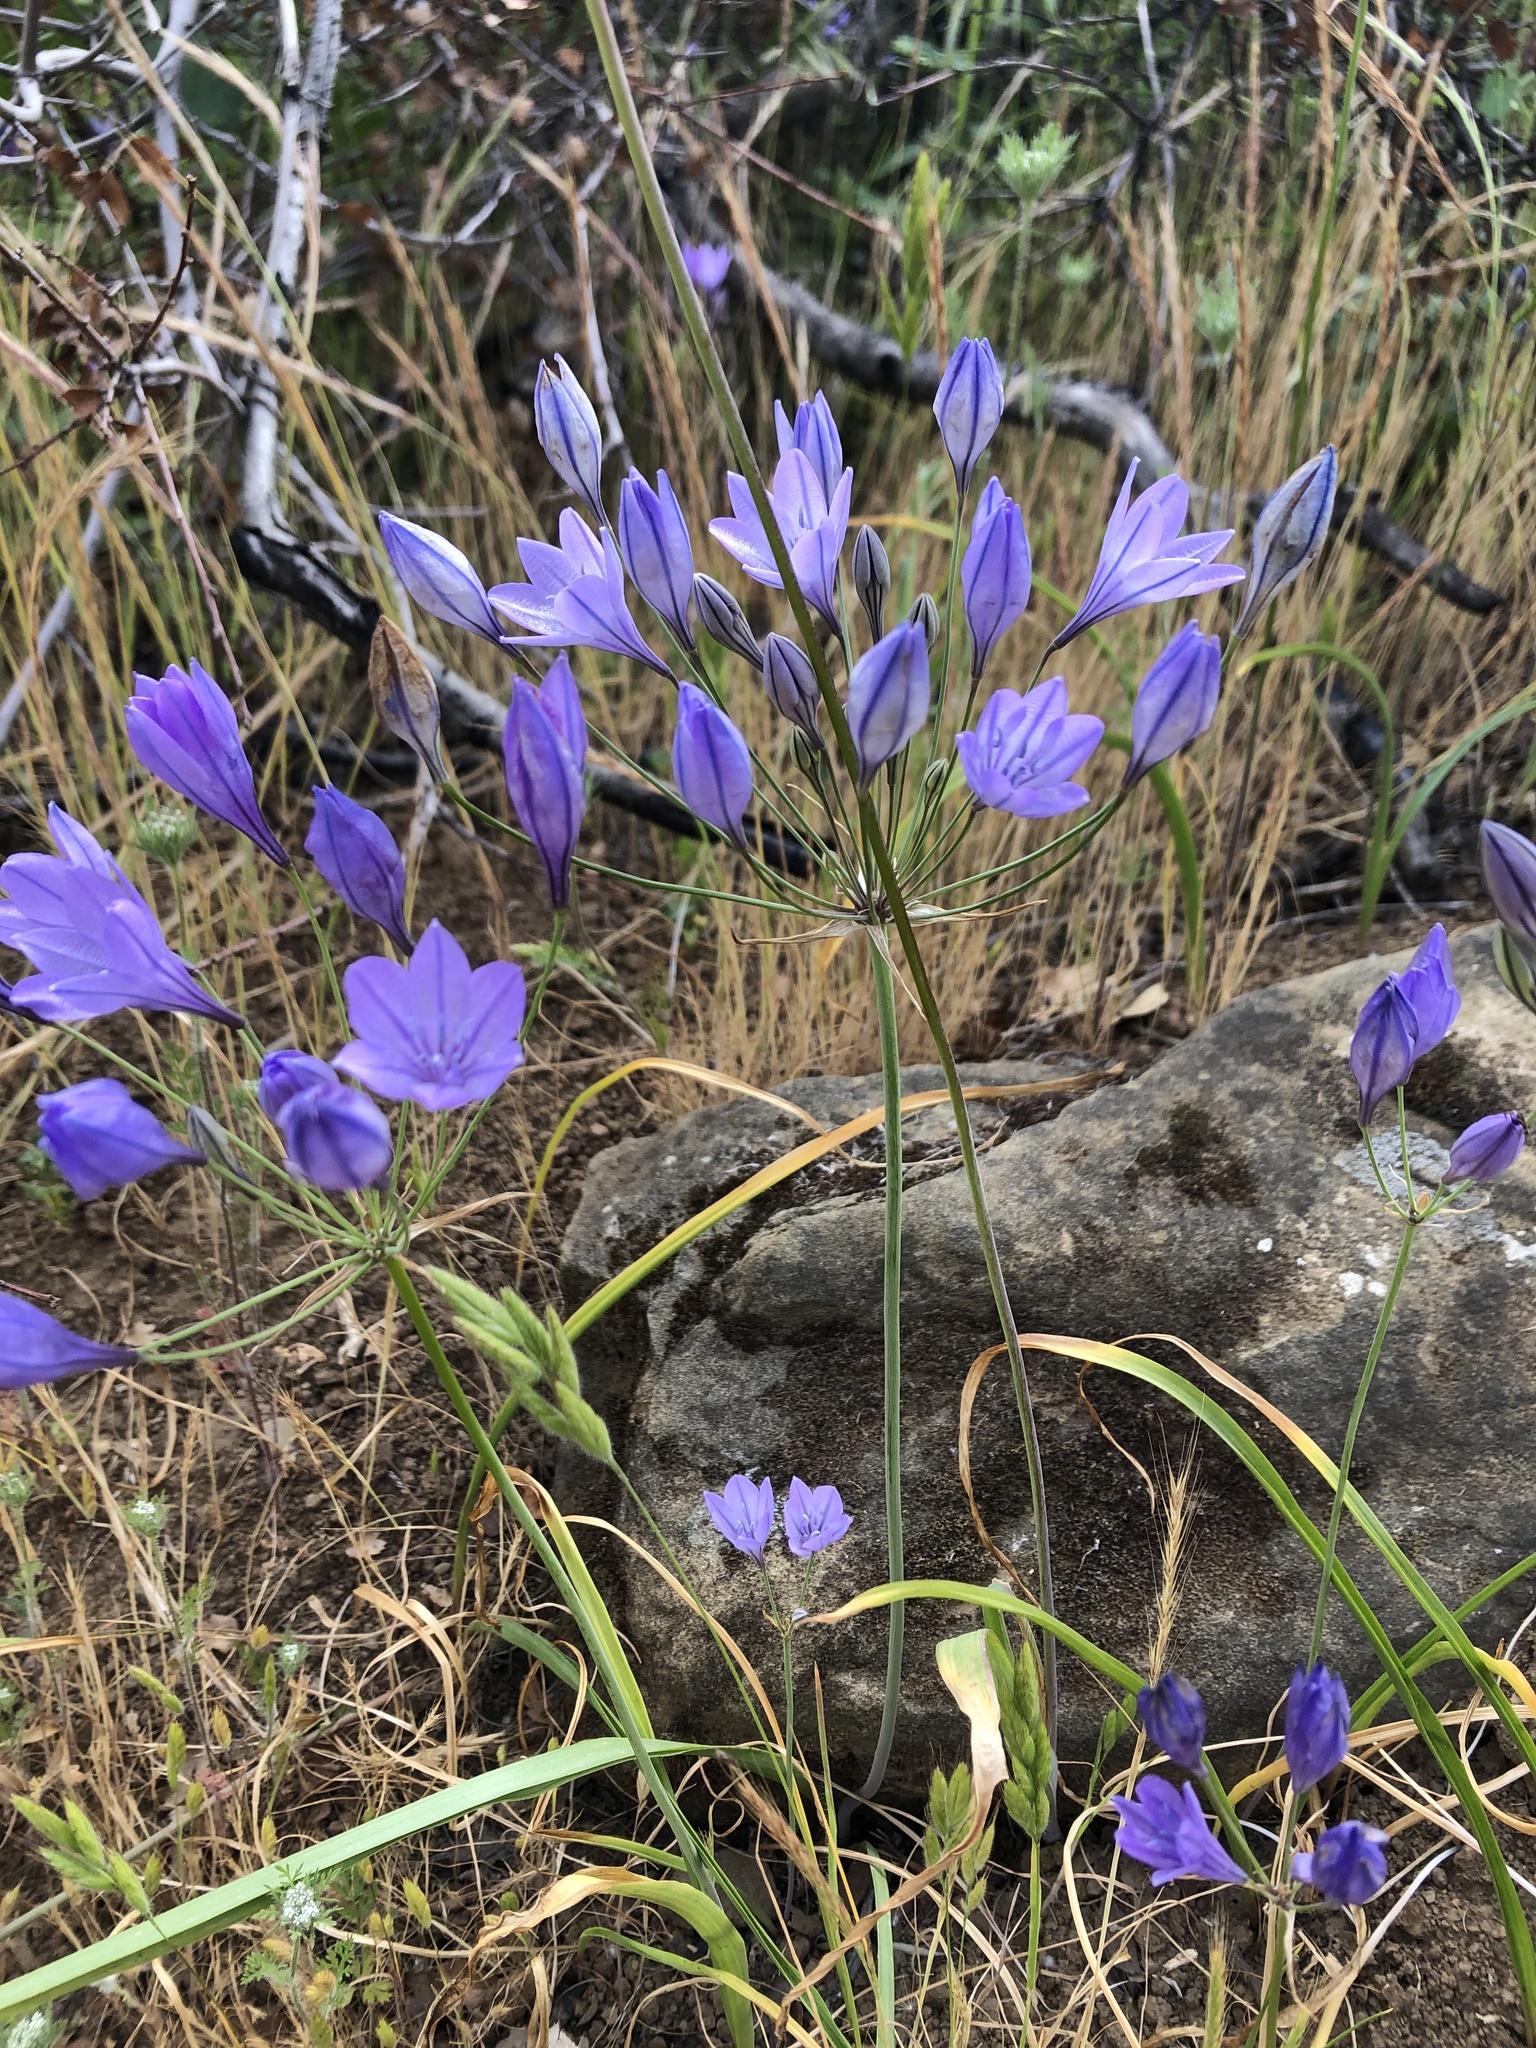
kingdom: Plantae
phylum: Tracheophyta
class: Liliopsida
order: Asparagales
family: Asparagaceae
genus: Triteleia
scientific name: Triteleia laxa
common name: Triplet-lily
